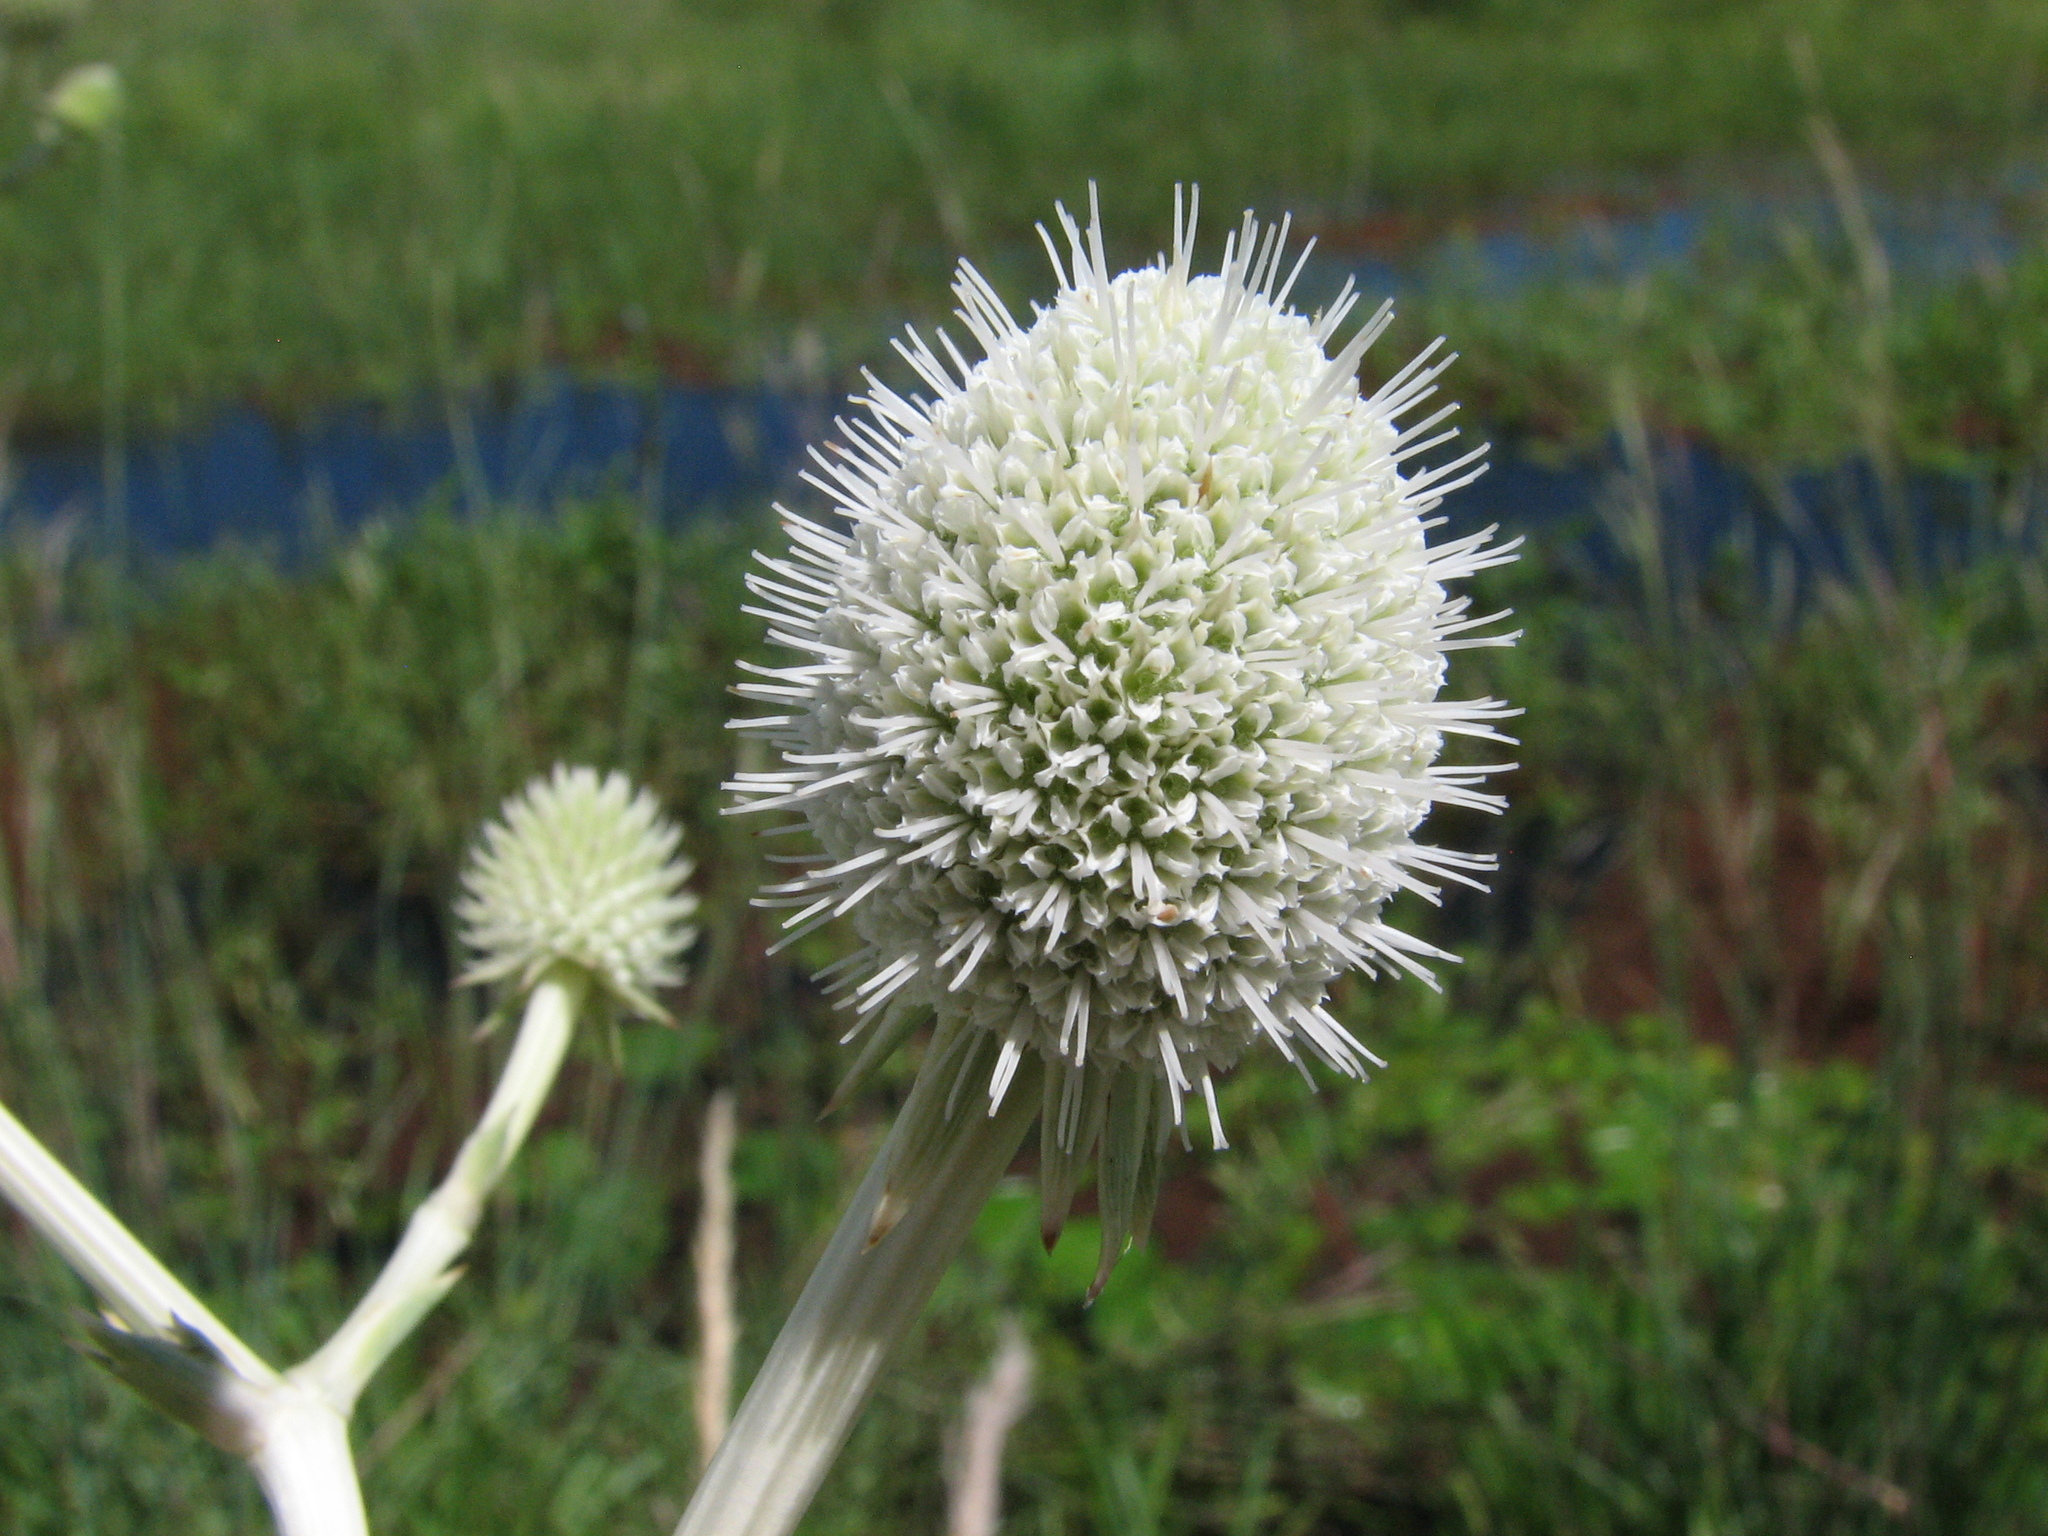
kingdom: Plantae
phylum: Tracheophyta
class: Magnoliopsida
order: Apiales
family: Apiaceae
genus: Eryngium
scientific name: Eryngium horridum
